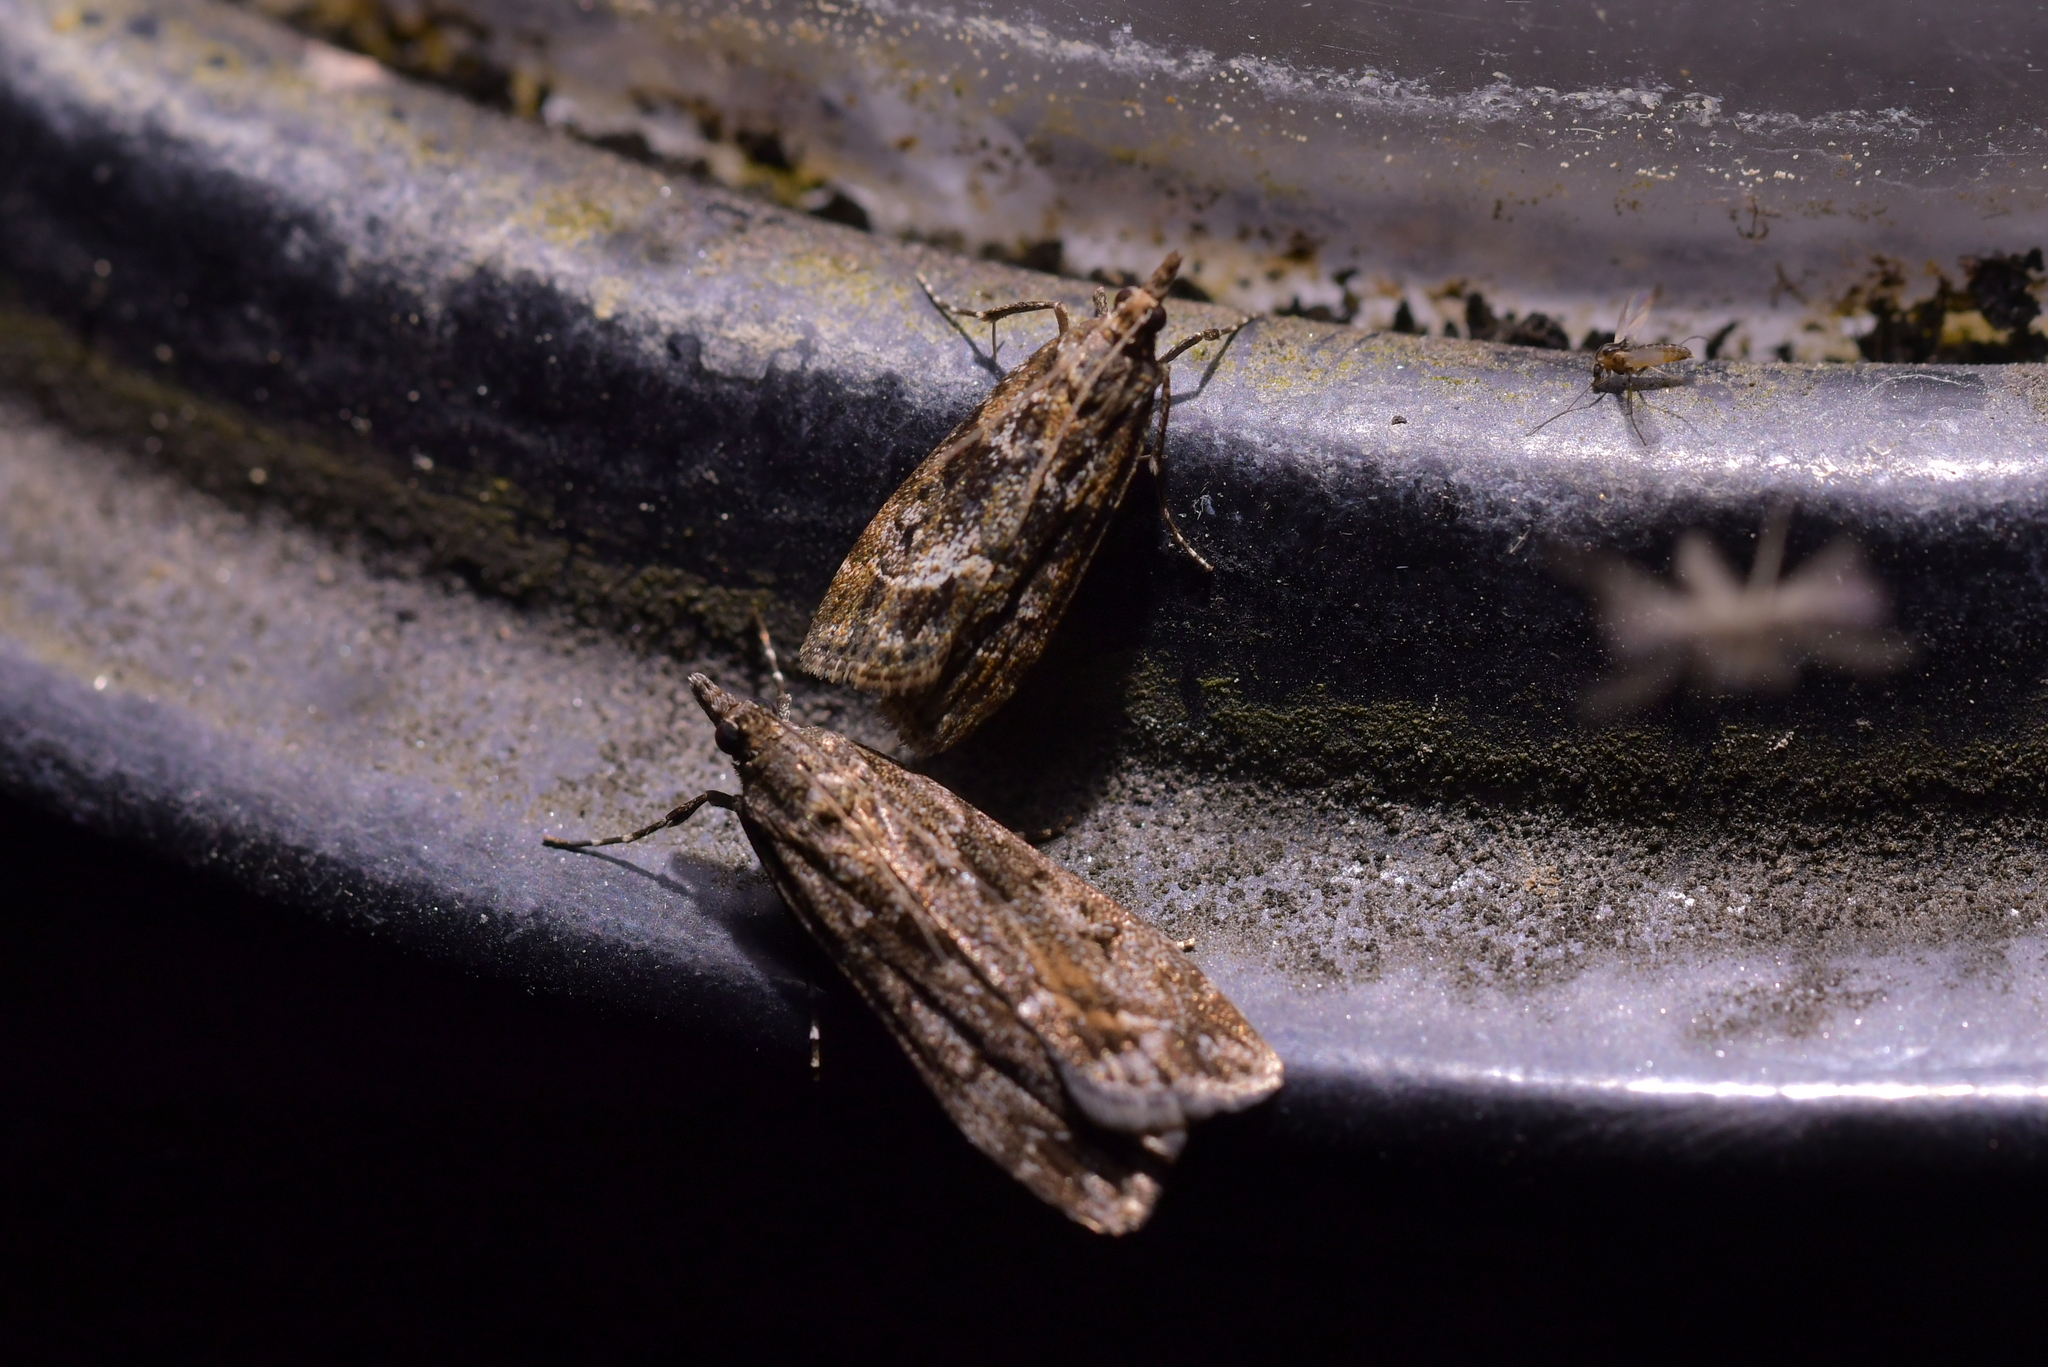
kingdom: Animalia
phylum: Arthropoda
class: Insecta
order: Lepidoptera
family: Crambidae
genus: Eudonia
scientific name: Eudonia submarginalis
